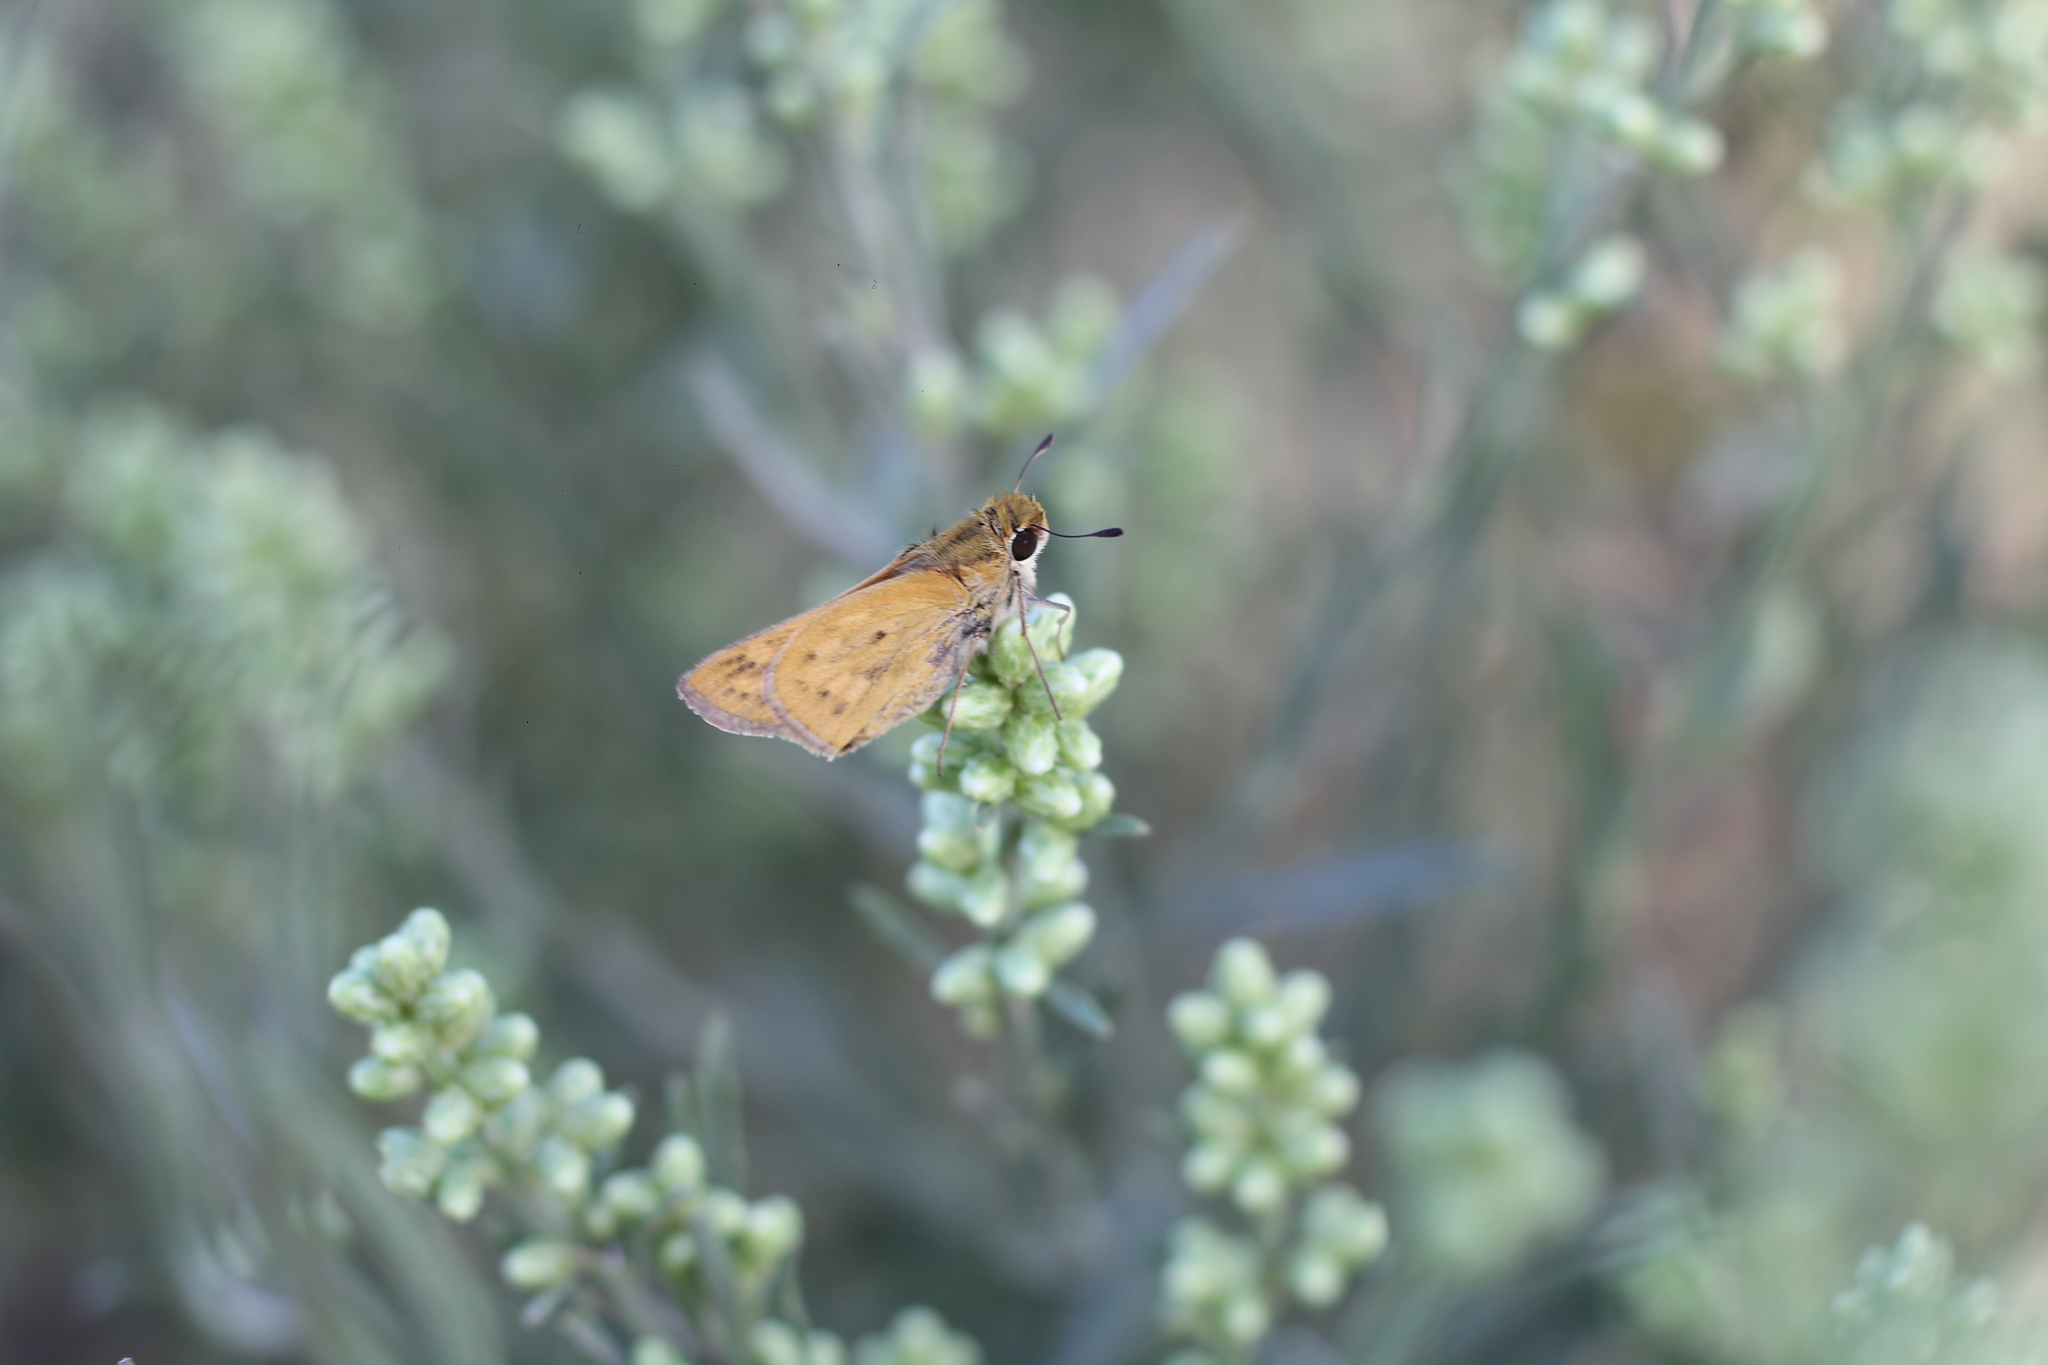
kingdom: Animalia
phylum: Arthropoda
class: Insecta
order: Lepidoptera
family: Hesperiidae
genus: Hylephila
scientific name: Hylephila phyleus
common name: Fiery skipper
